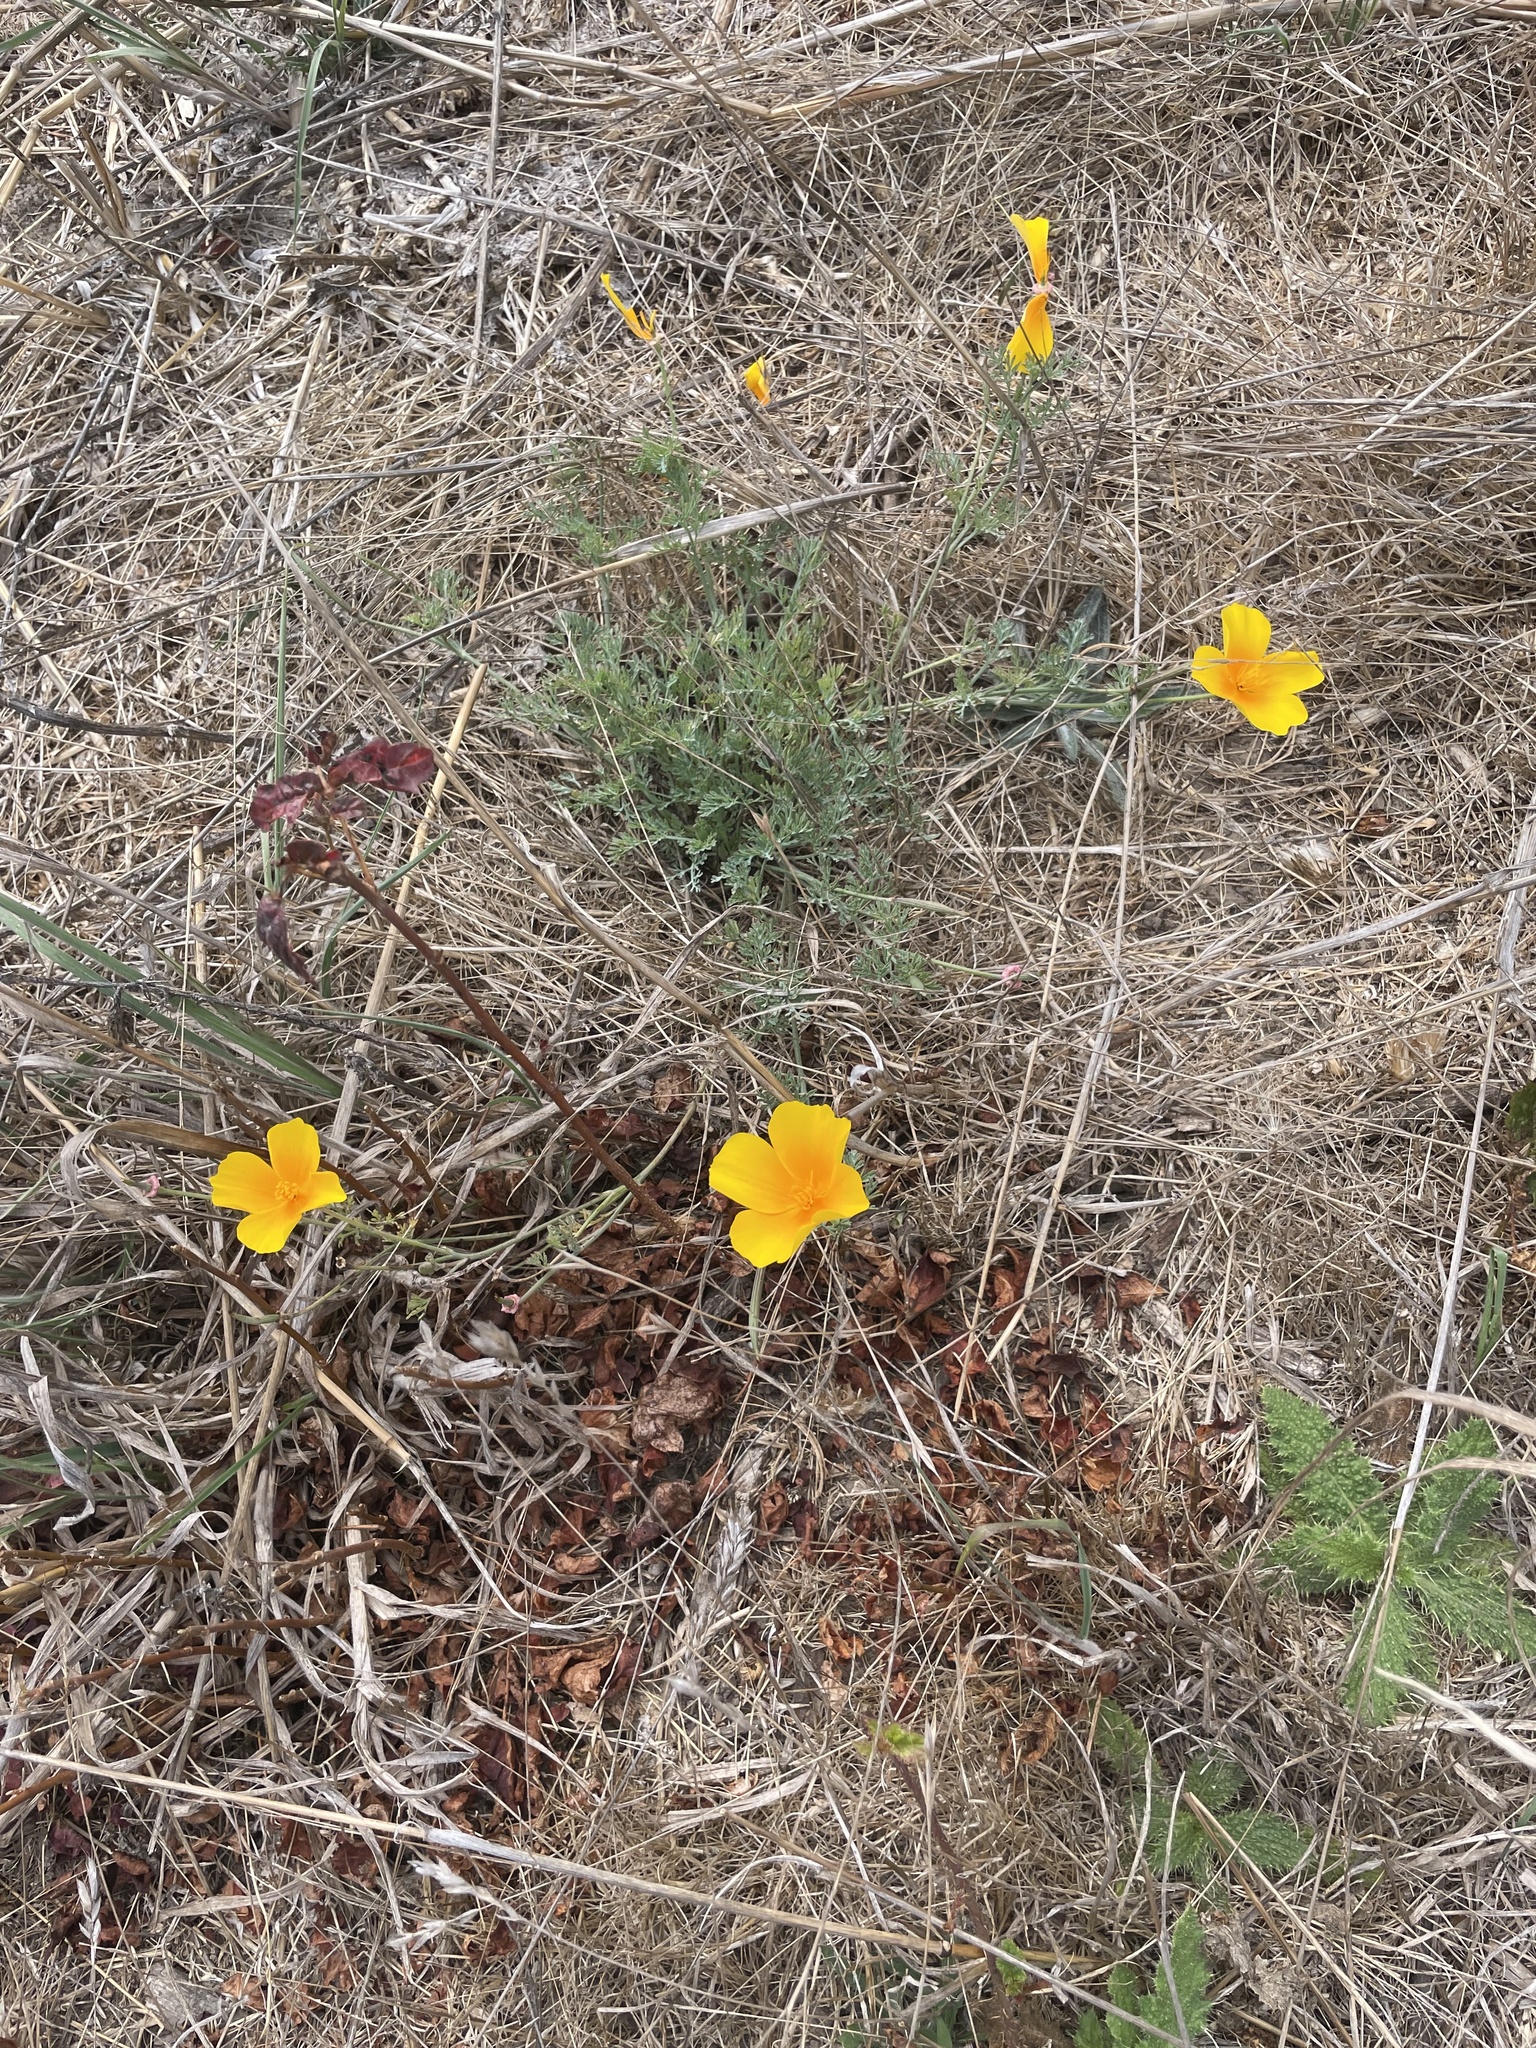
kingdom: Plantae
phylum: Tracheophyta
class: Magnoliopsida
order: Ranunculales
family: Papaveraceae
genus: Eschscholzia
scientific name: Eschscholzia californica
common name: California poppy
